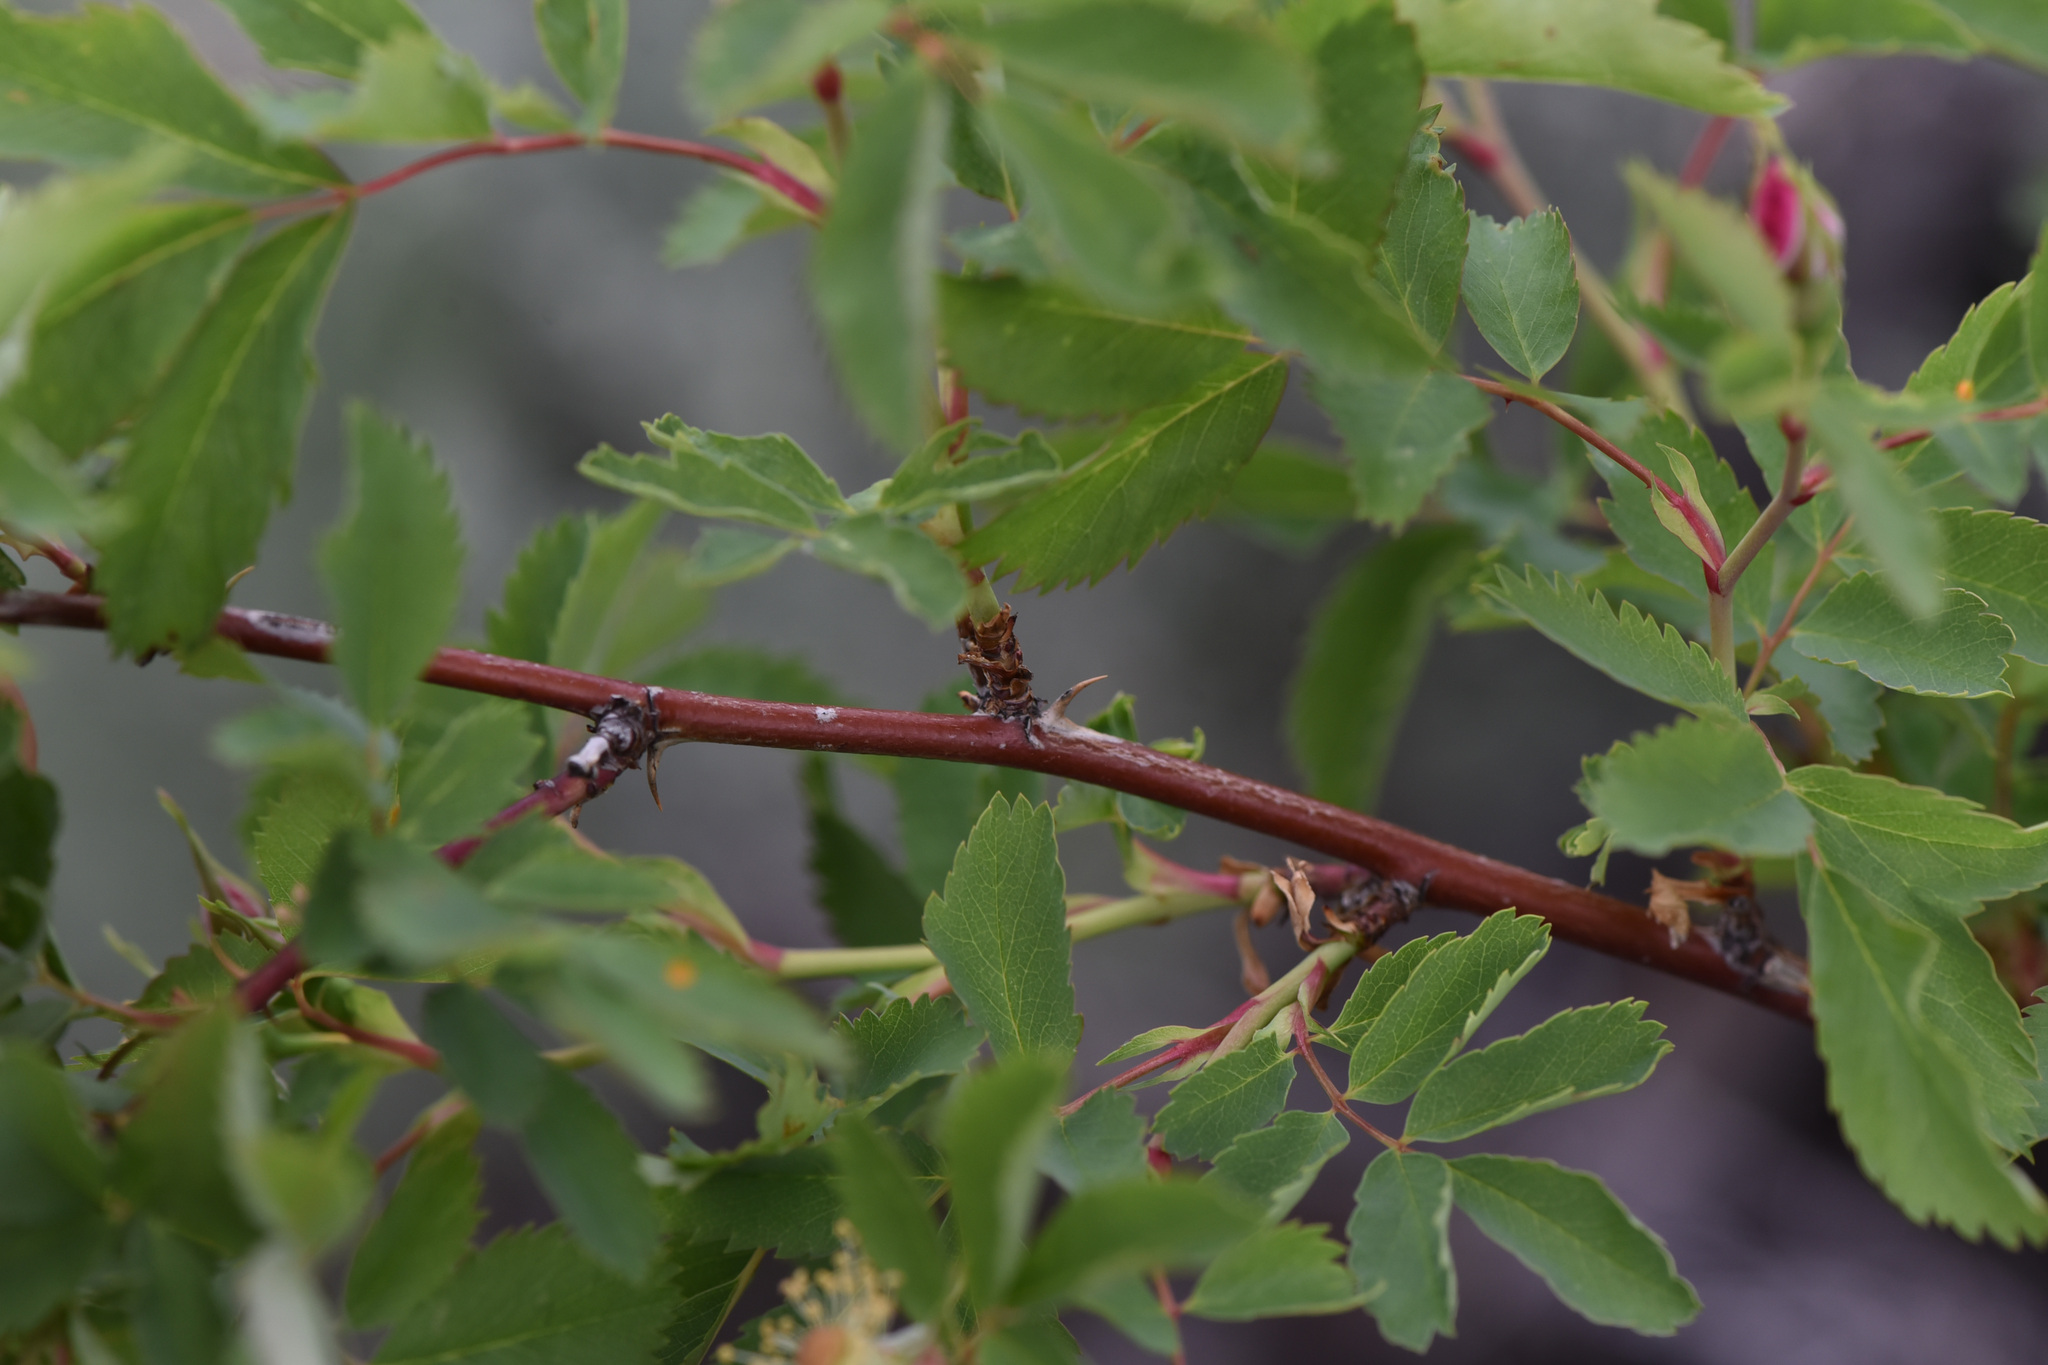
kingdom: Plantae
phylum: Tracheophyta
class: Magnoliopsida
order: Rosales
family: Rosaceae
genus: Rosa
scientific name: Rosa woodsii
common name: Woods's rose
